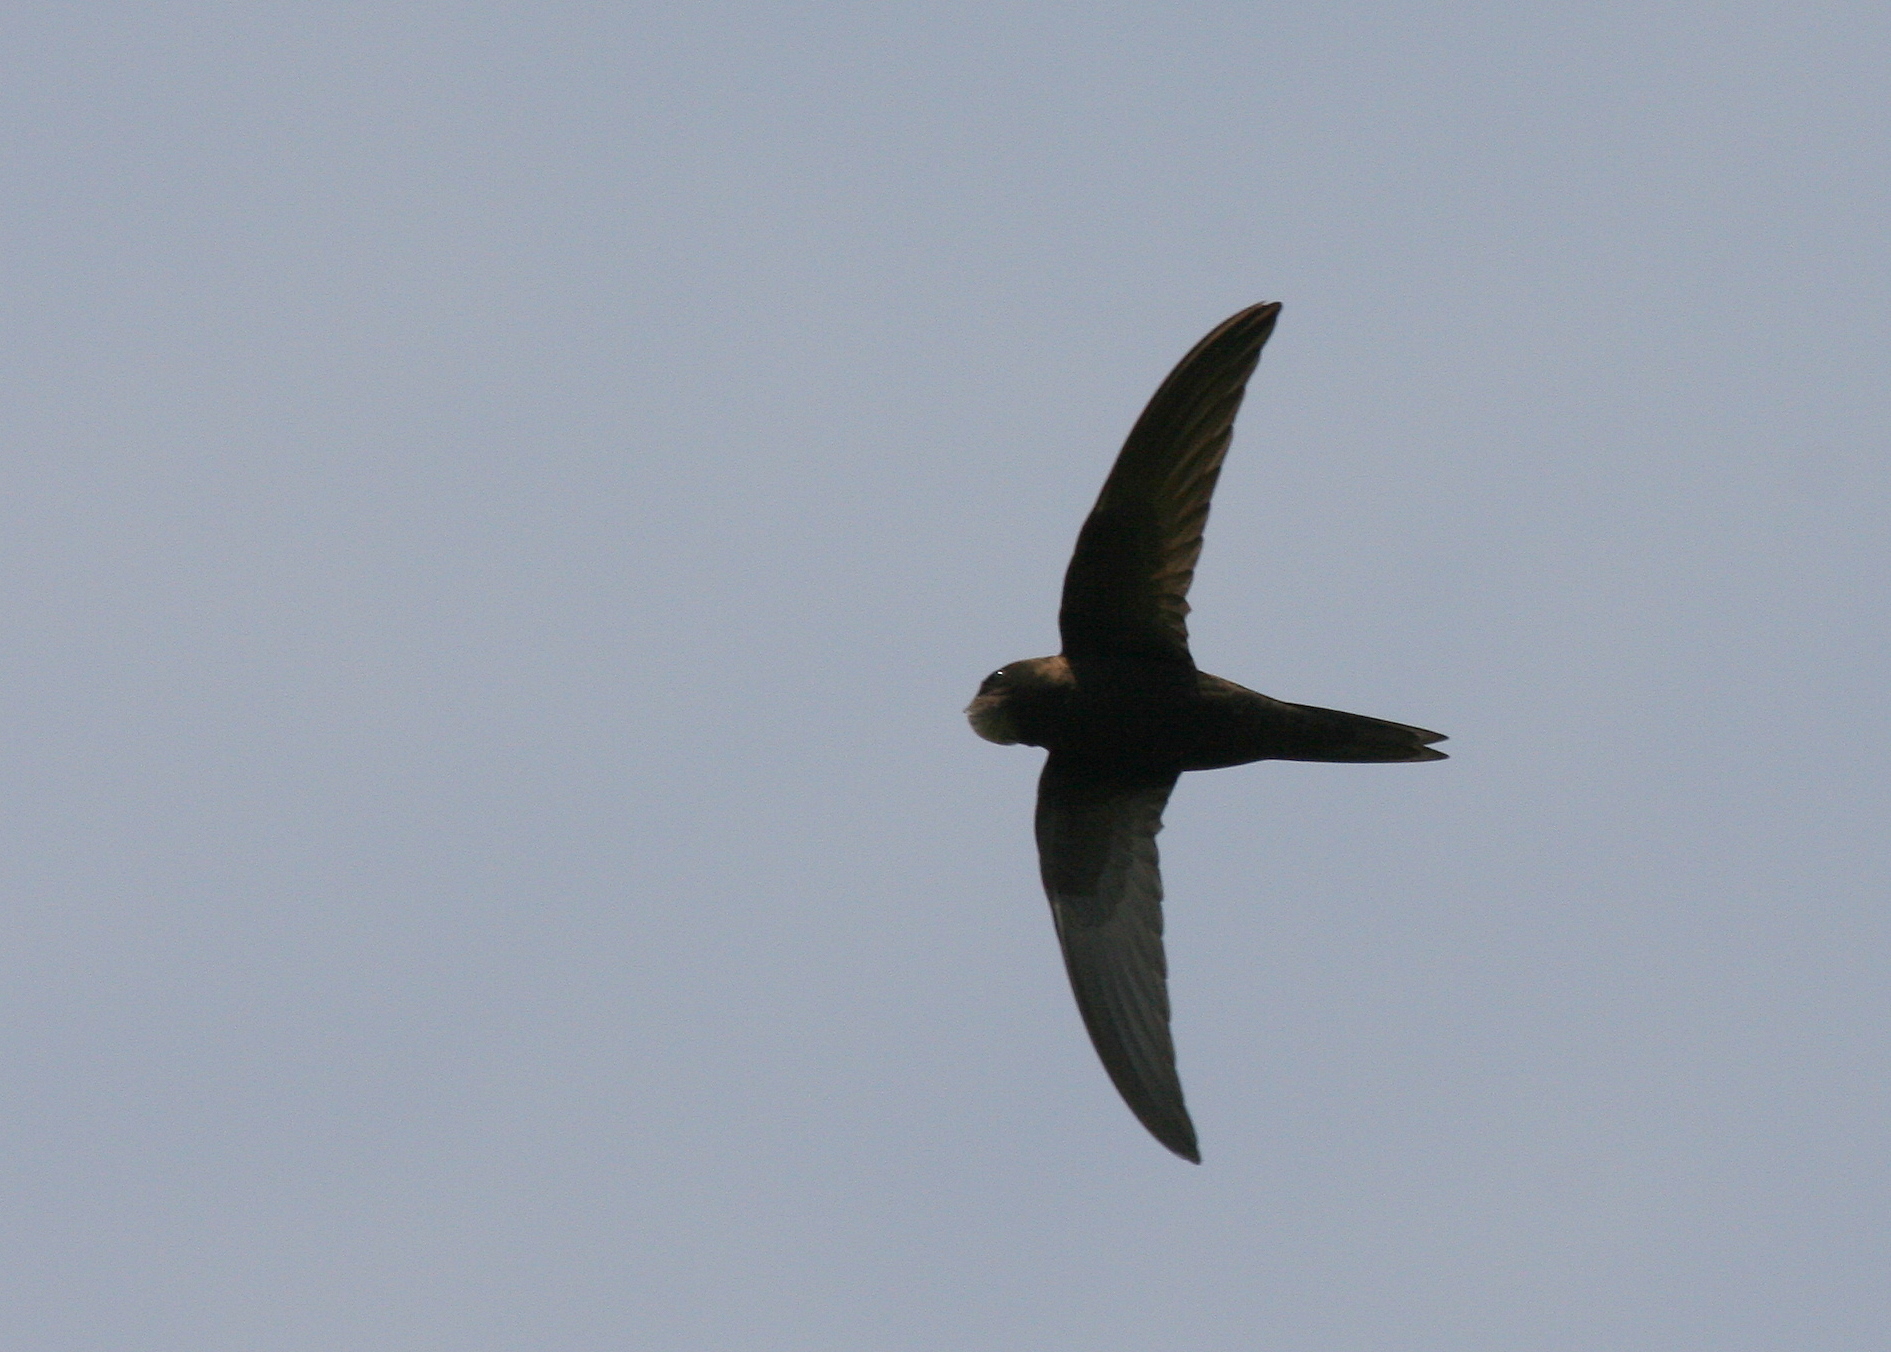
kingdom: Animalia
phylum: Chordata
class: Aves
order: Apodiformes
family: Apodidae
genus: Apus
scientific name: Apus apus
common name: Common swift
